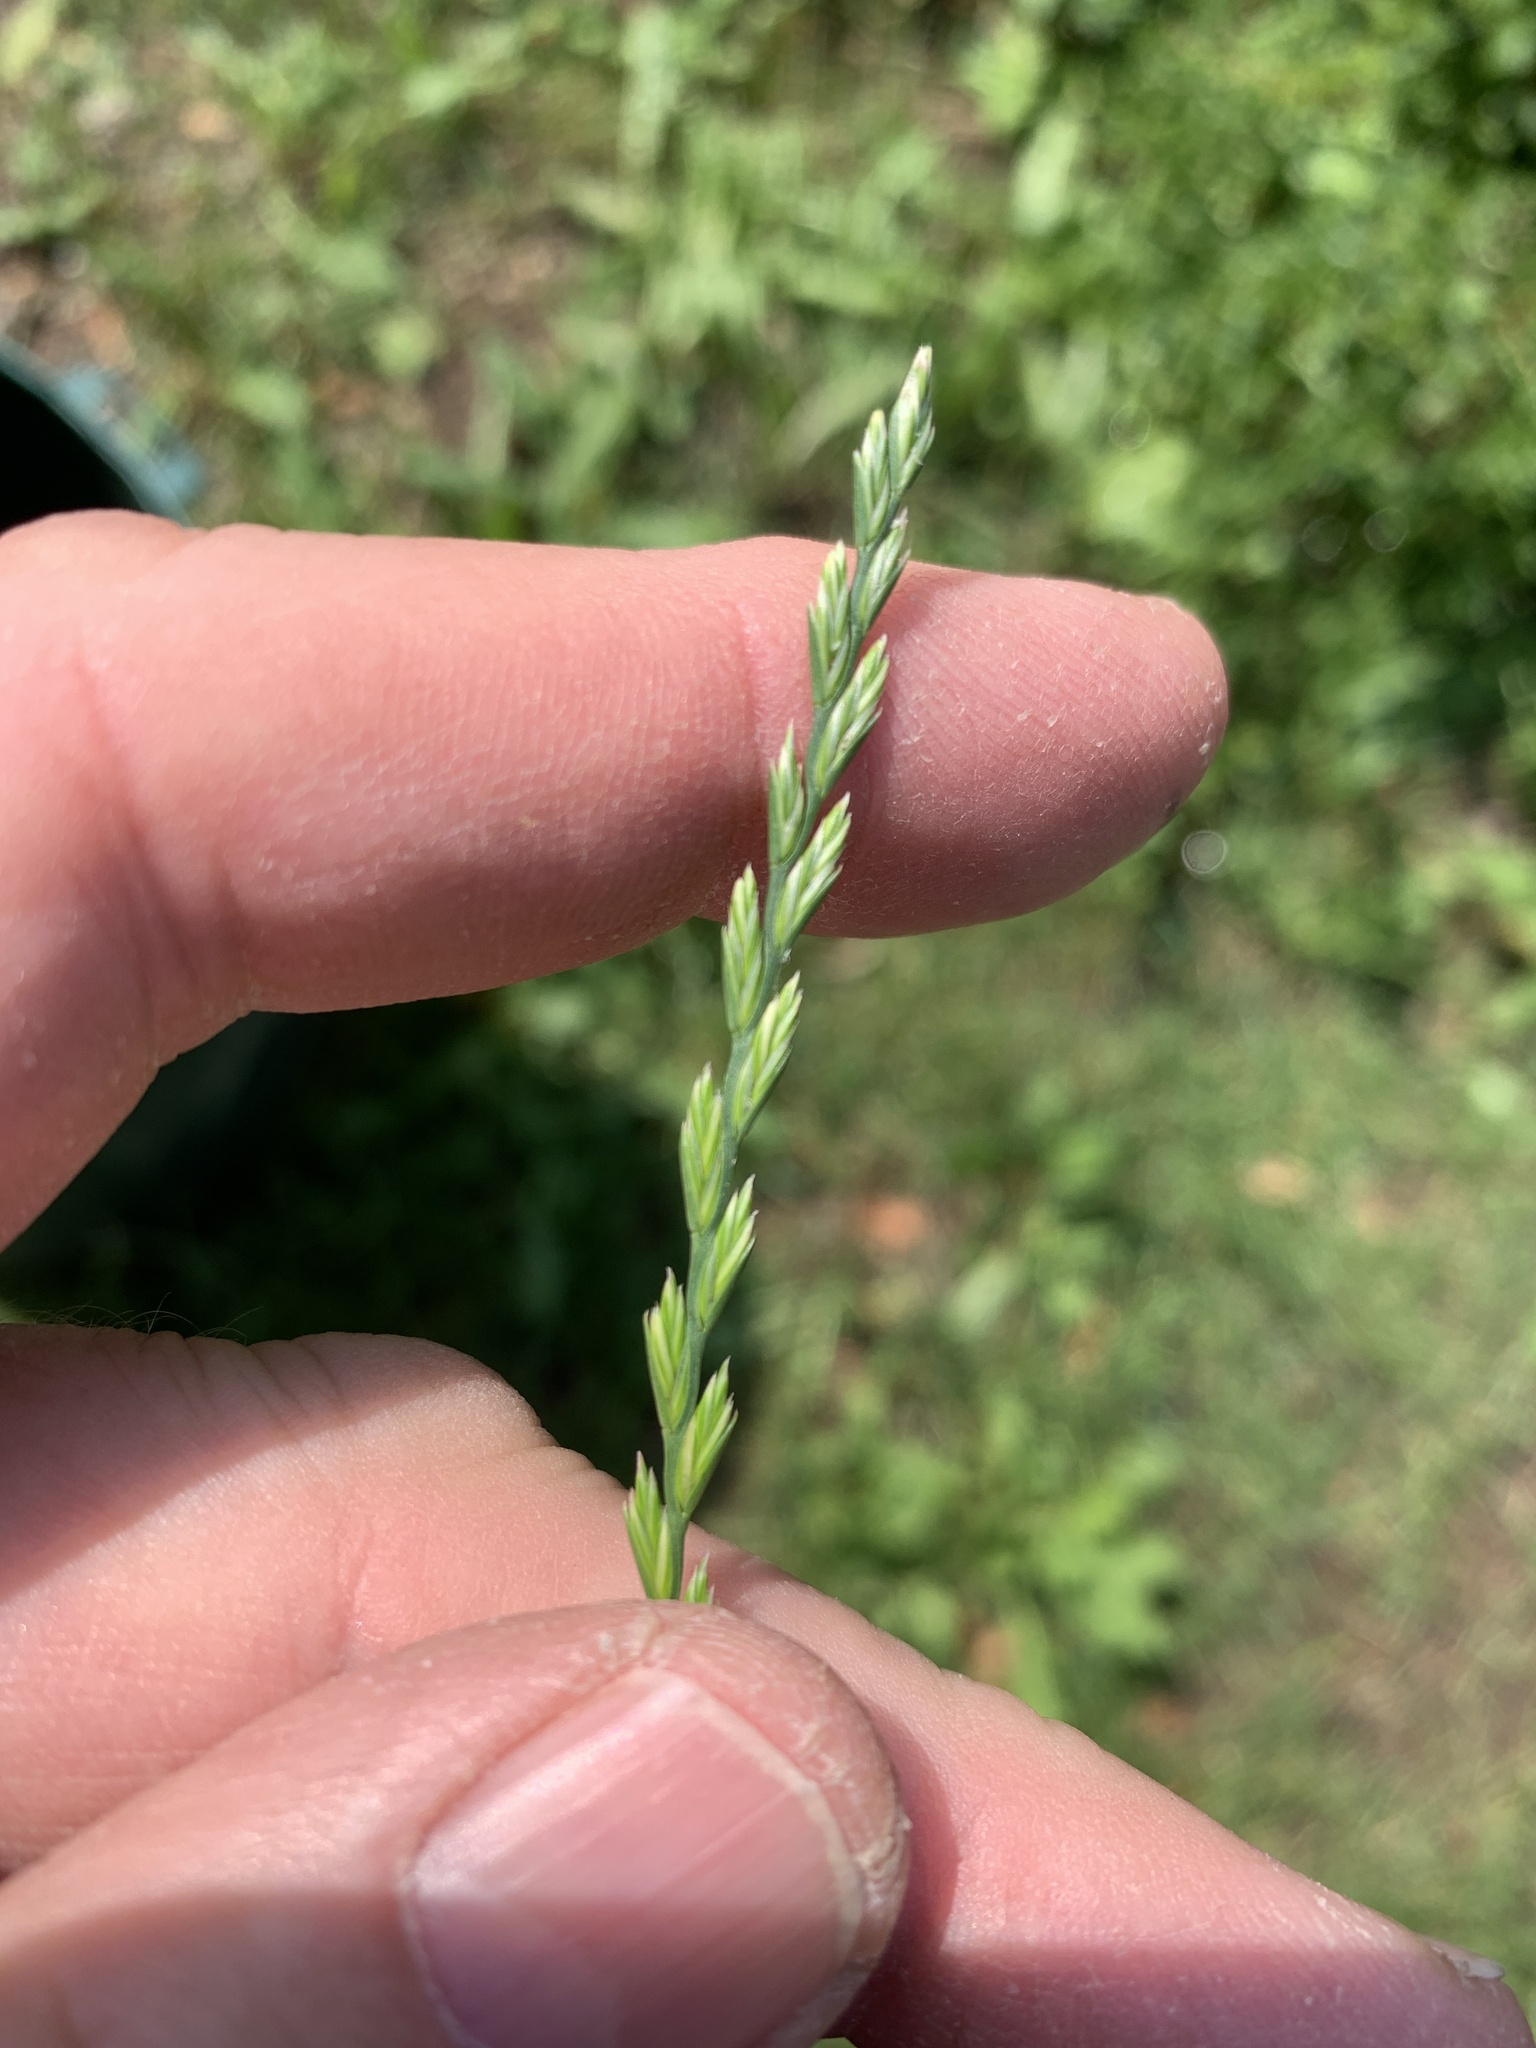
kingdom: Plantae
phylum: Tracheophyta
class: Liliopsida
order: Poales
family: Poaceae
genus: Lolium
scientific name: Lolium perenne
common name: Perennial ryegrass
